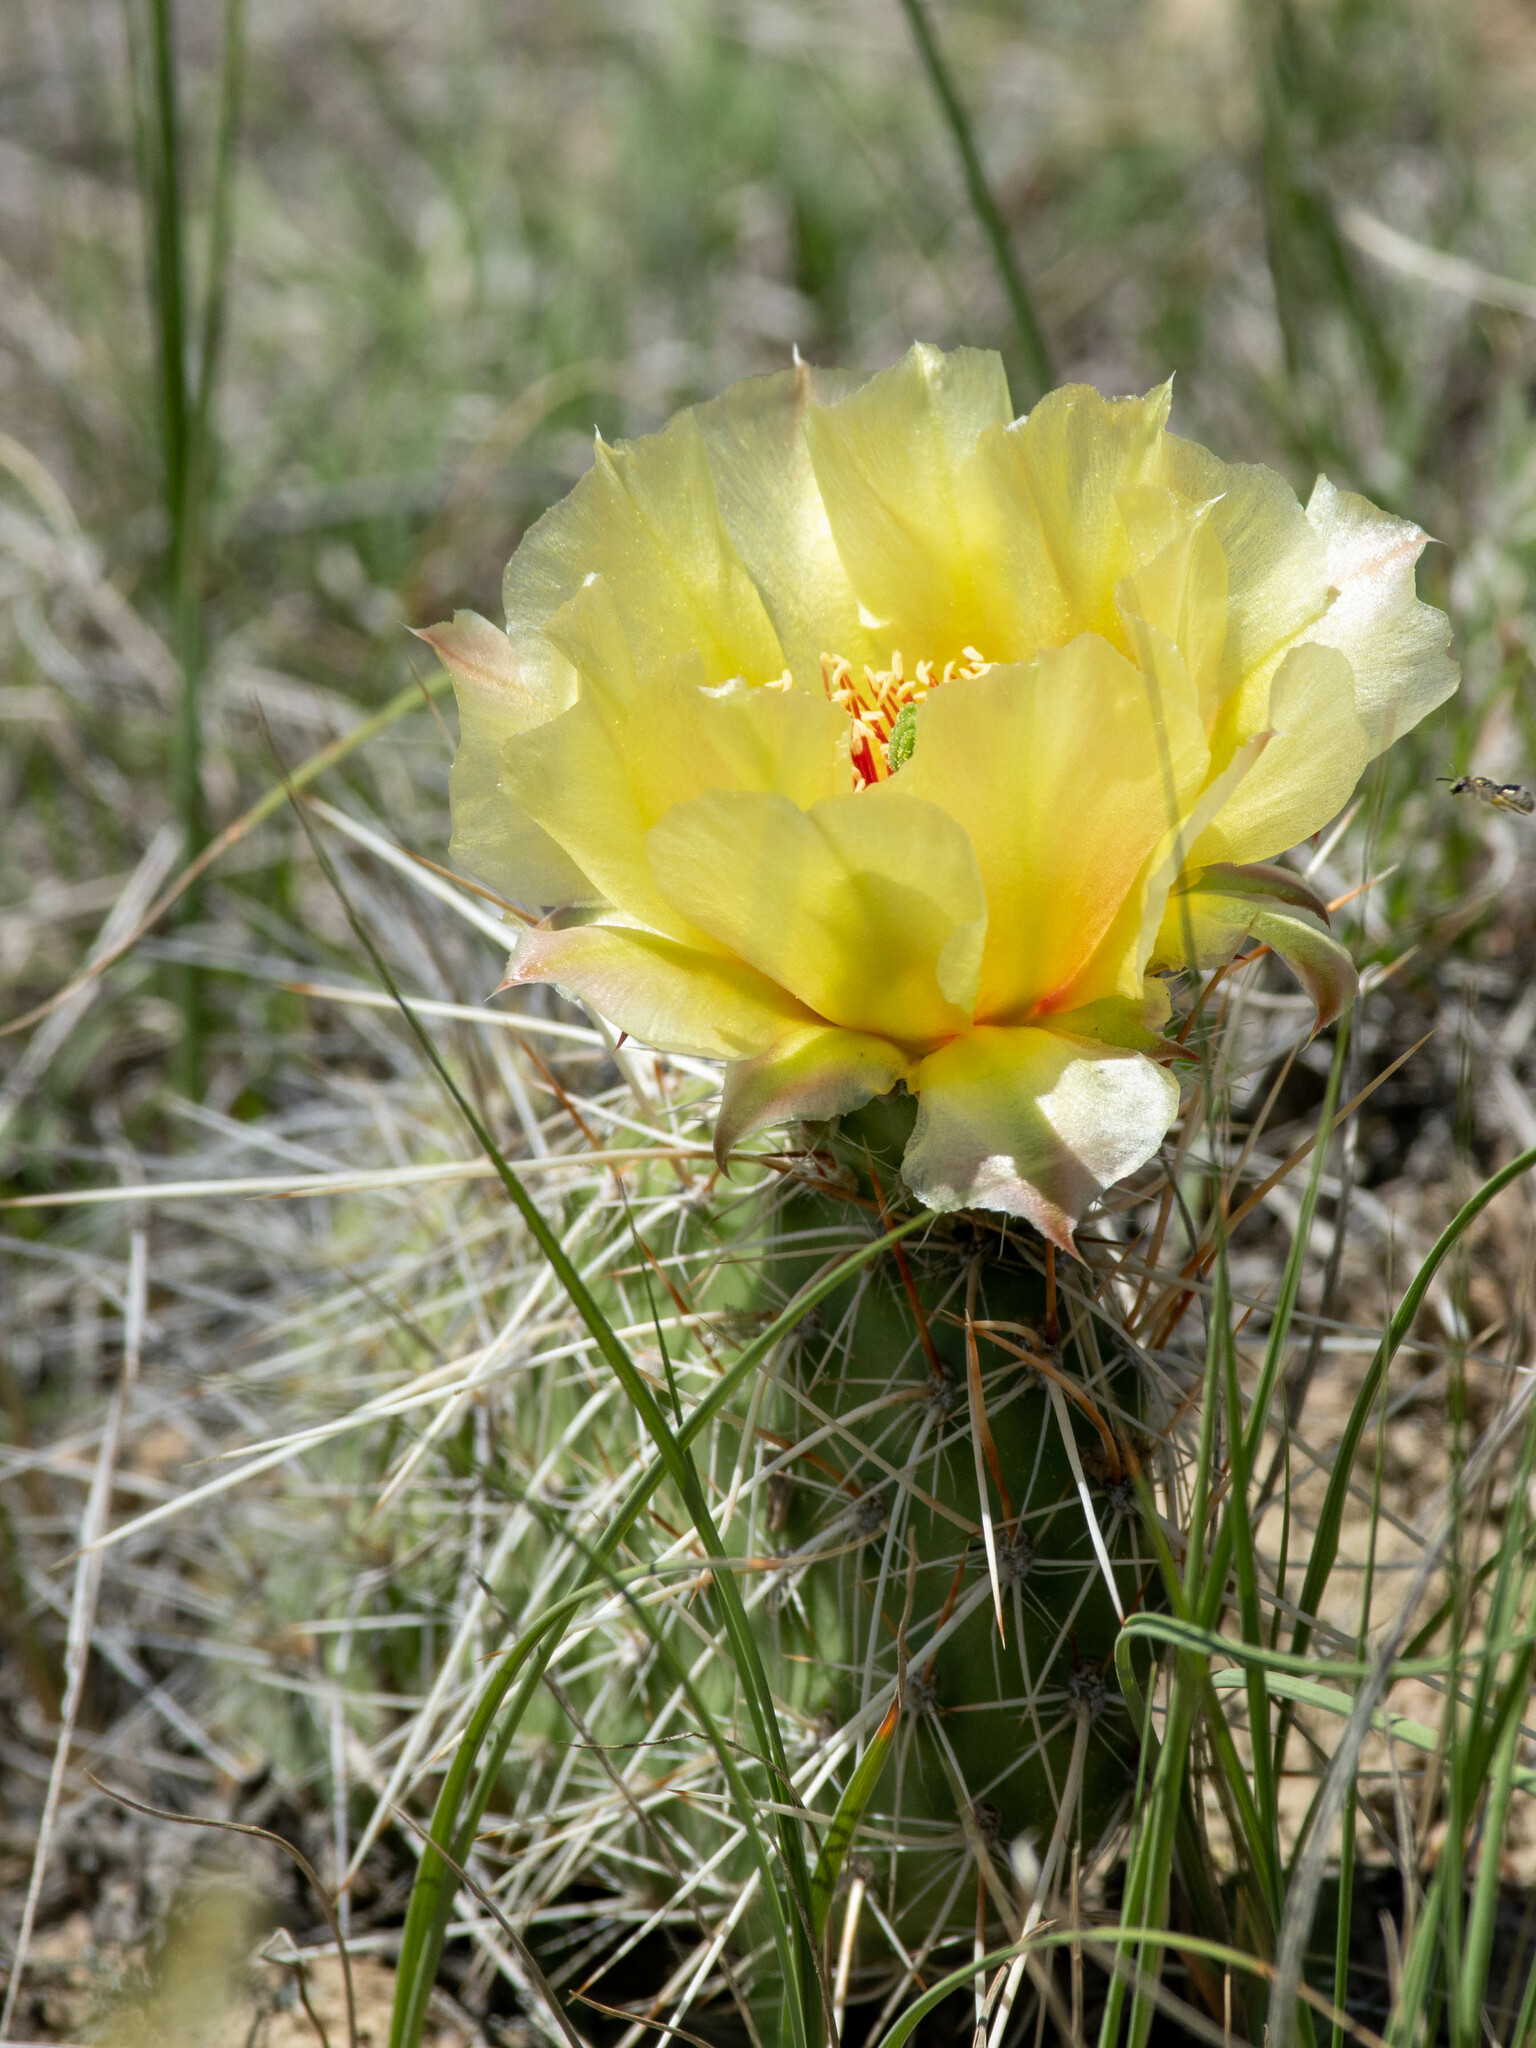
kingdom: Plantae
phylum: Tracheophyta
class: Magnoliopsida
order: Caryophyllales
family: Cactaceae
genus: Opuntia
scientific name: Opuntia polyacantha
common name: Plains prickly-pear
